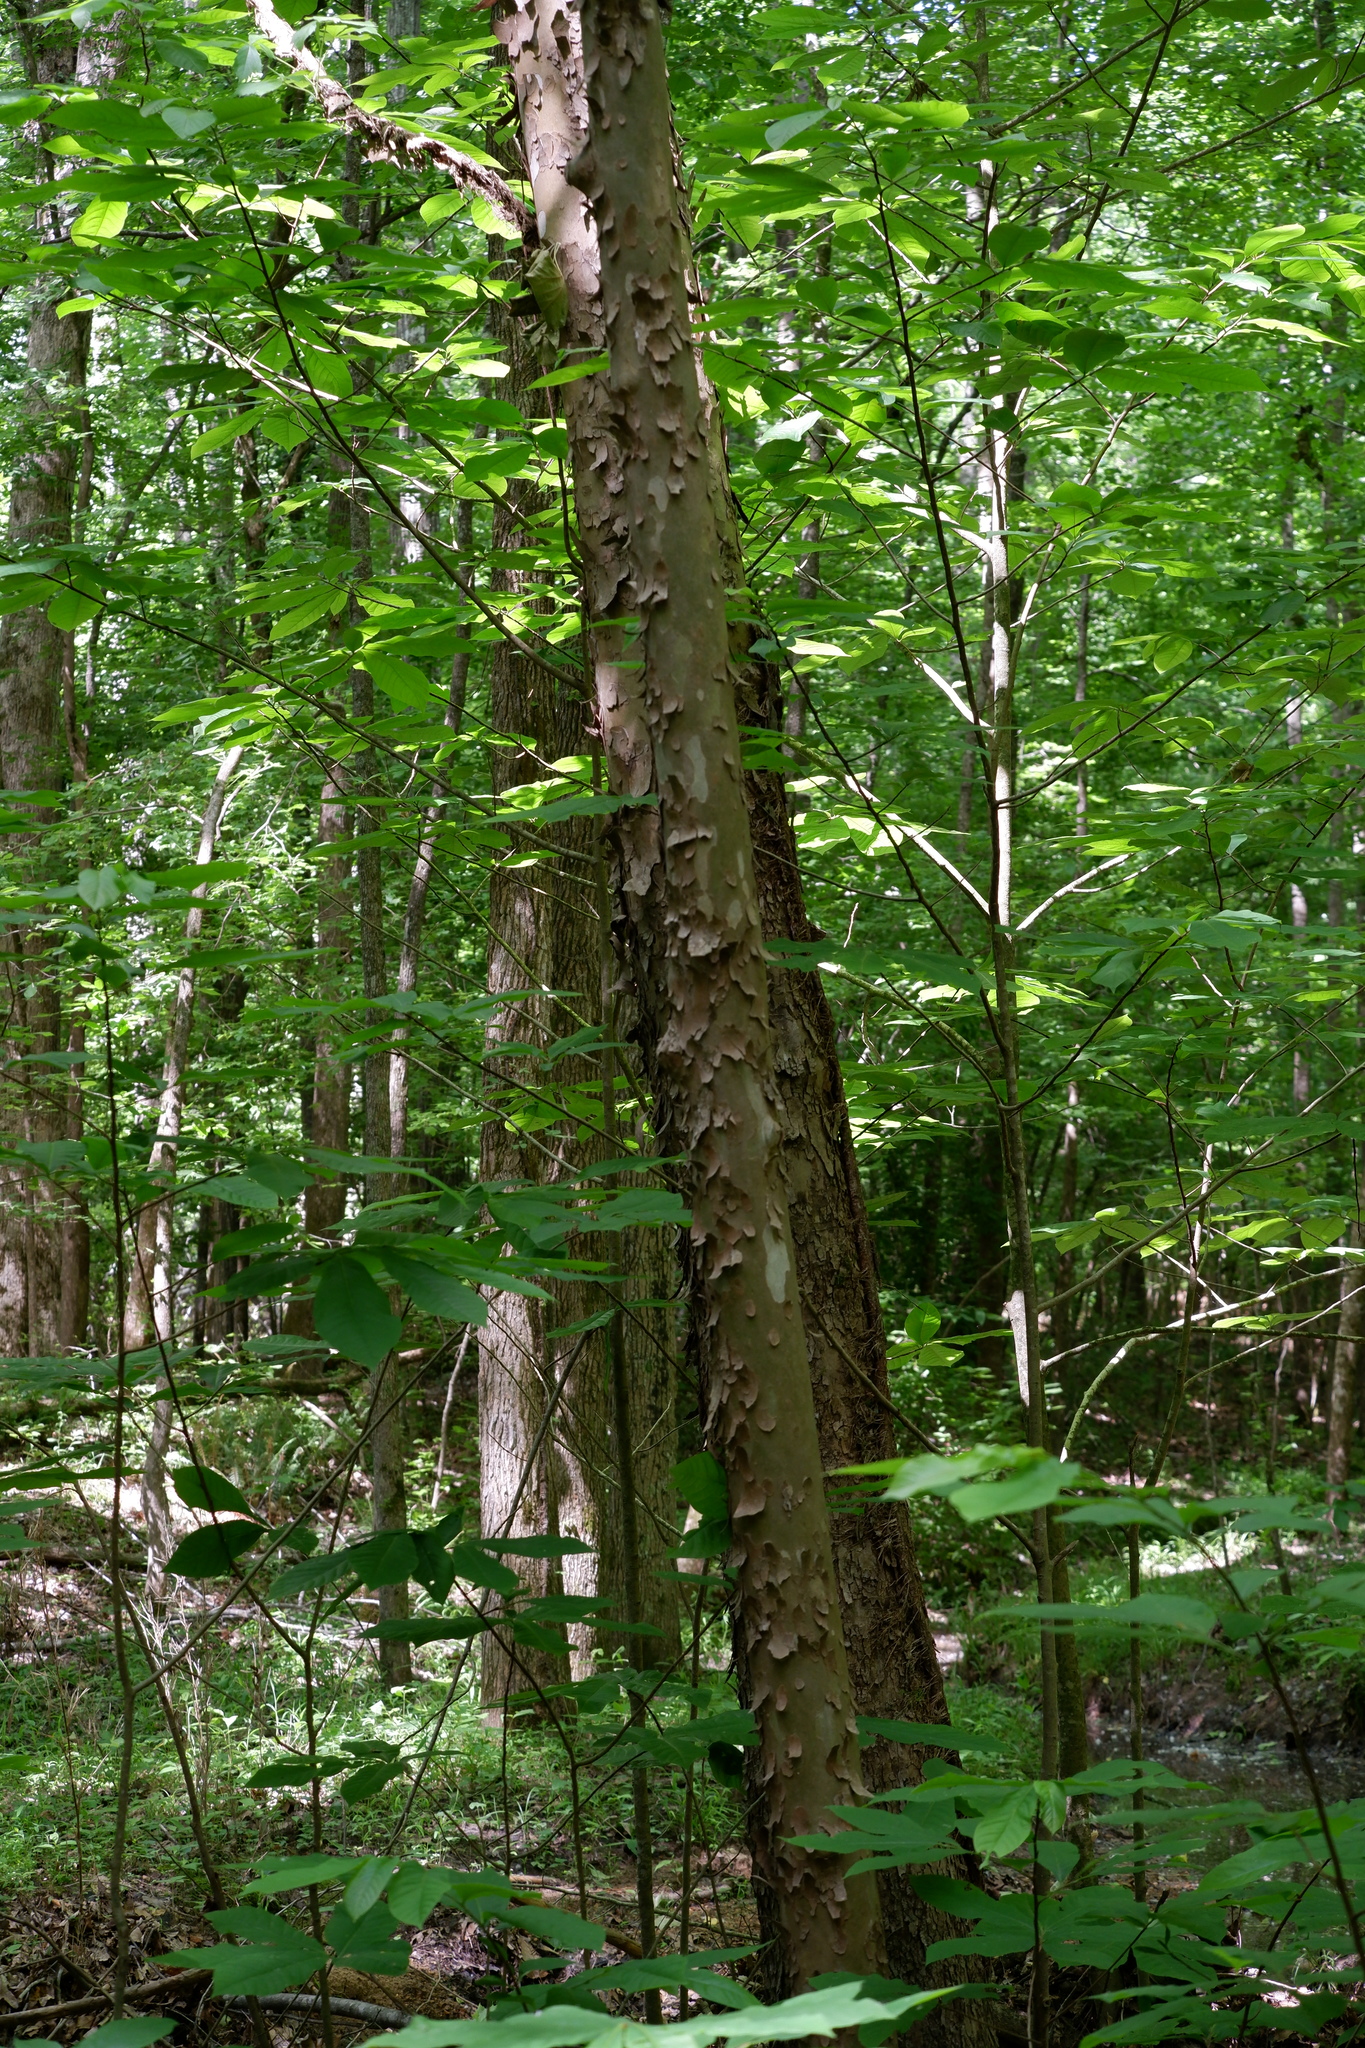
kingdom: Plantae
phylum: Tracheophyta
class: Magnoliopsida
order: Proteales
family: Platanaceae
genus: Platanus
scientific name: Platanus occidentalis
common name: American sycamore
